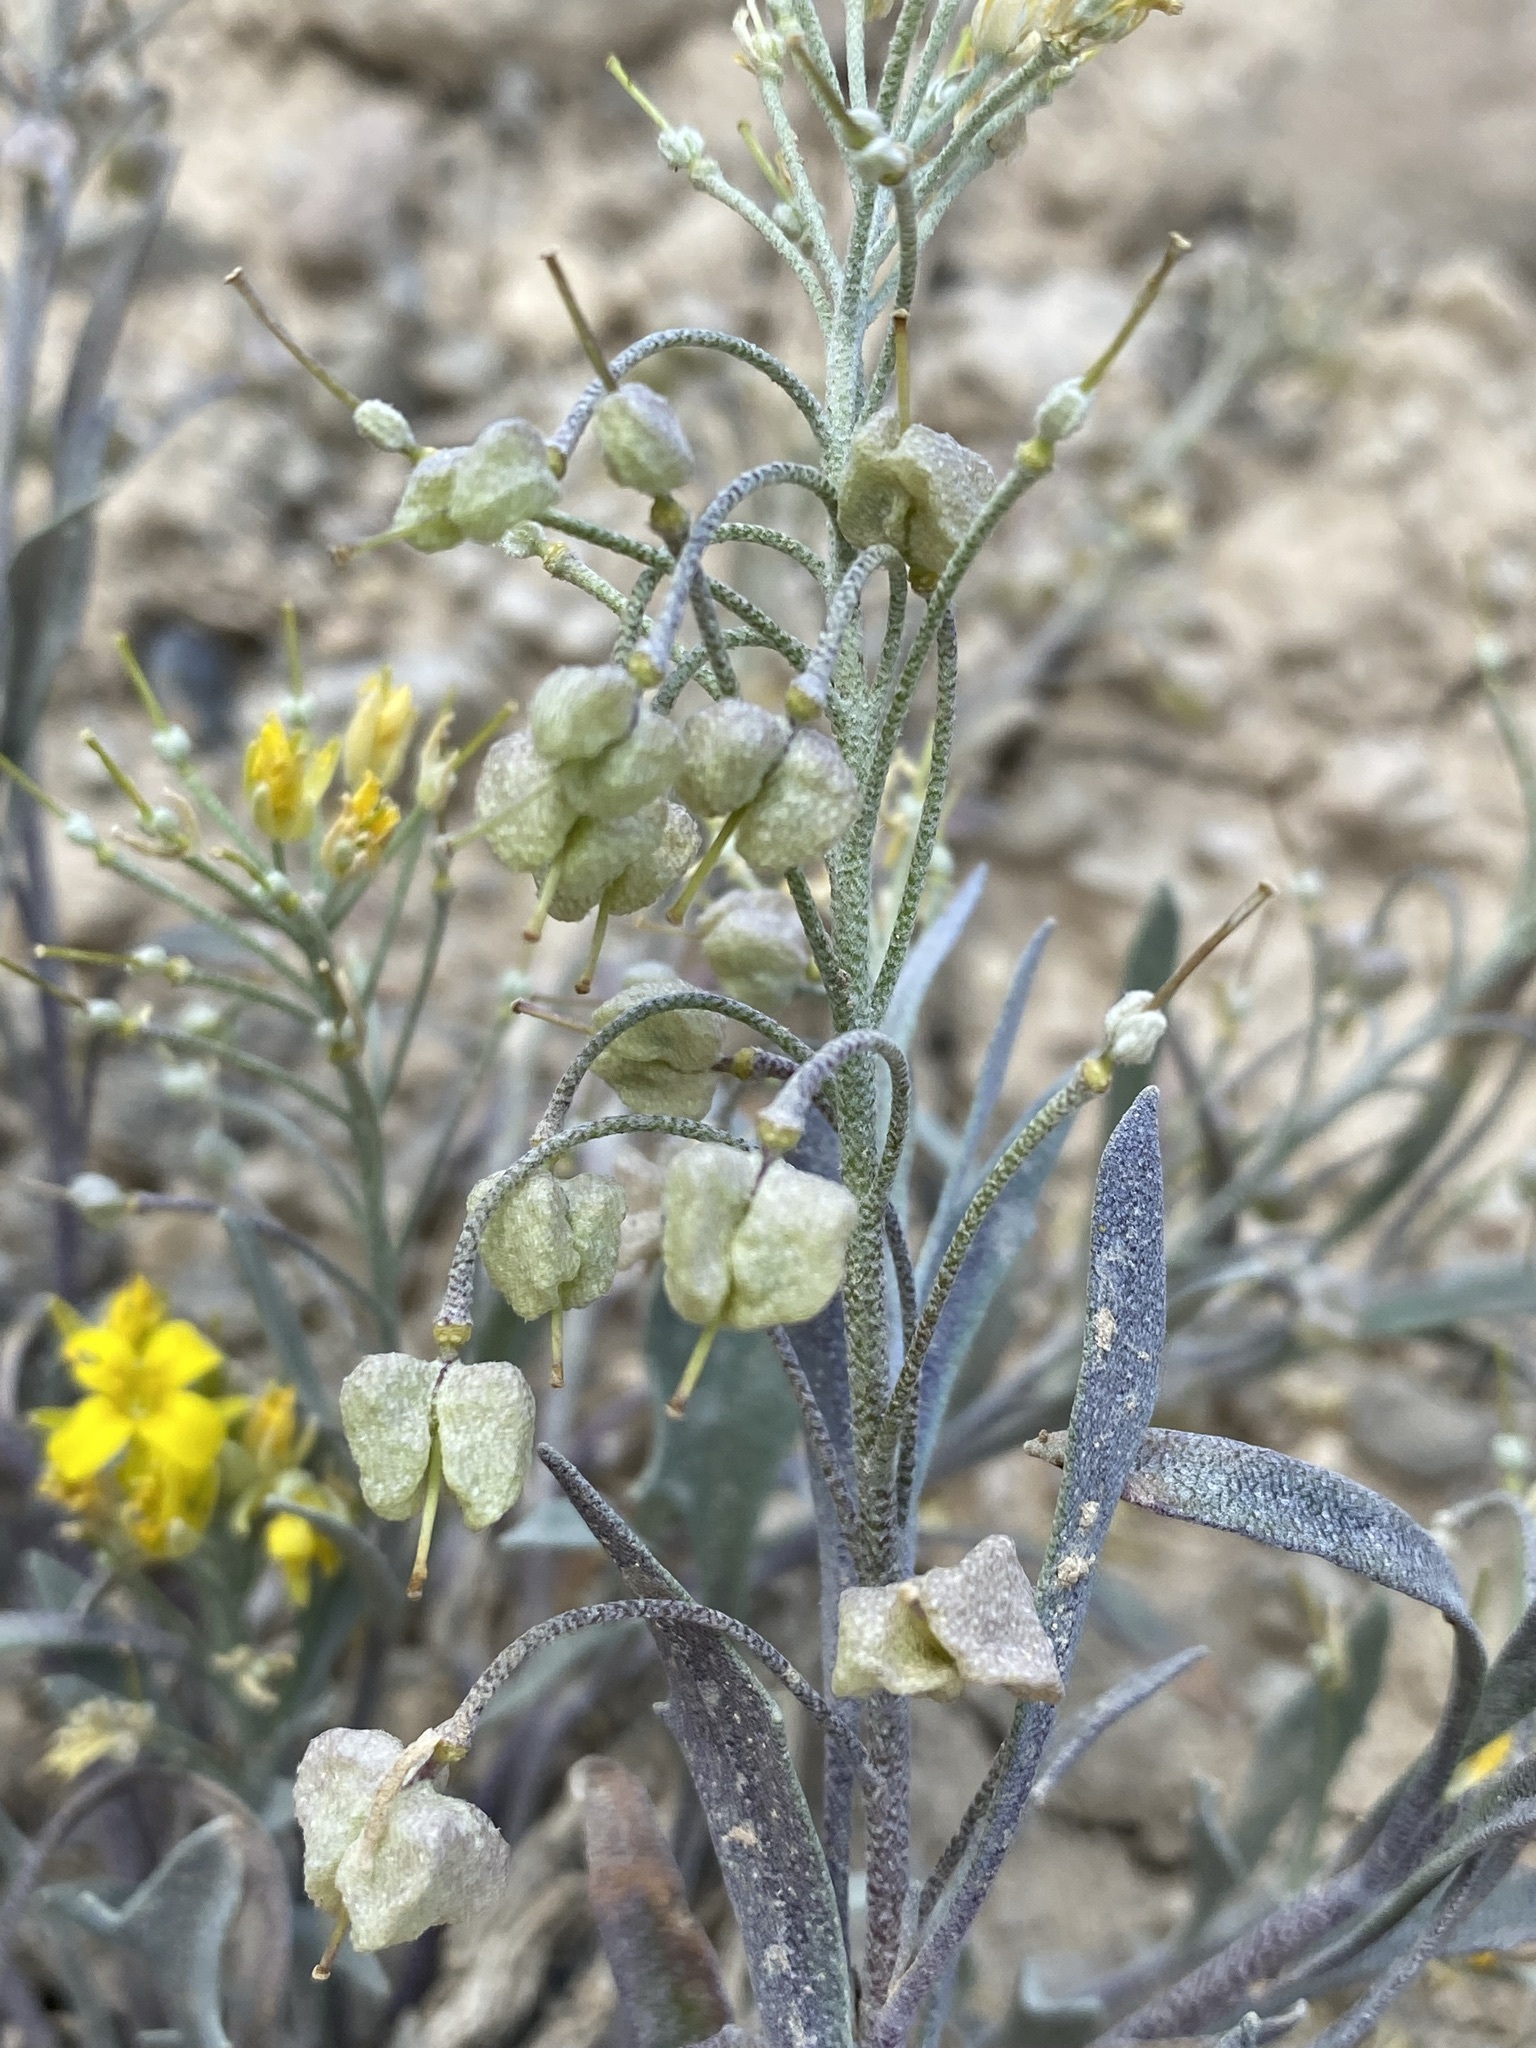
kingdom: Plantae
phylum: Tracheophyta
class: Magnoliopsida
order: Brassicales
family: Brassicaceae
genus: Physaria
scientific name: Physaria floribunda
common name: Point-tip twinpod
